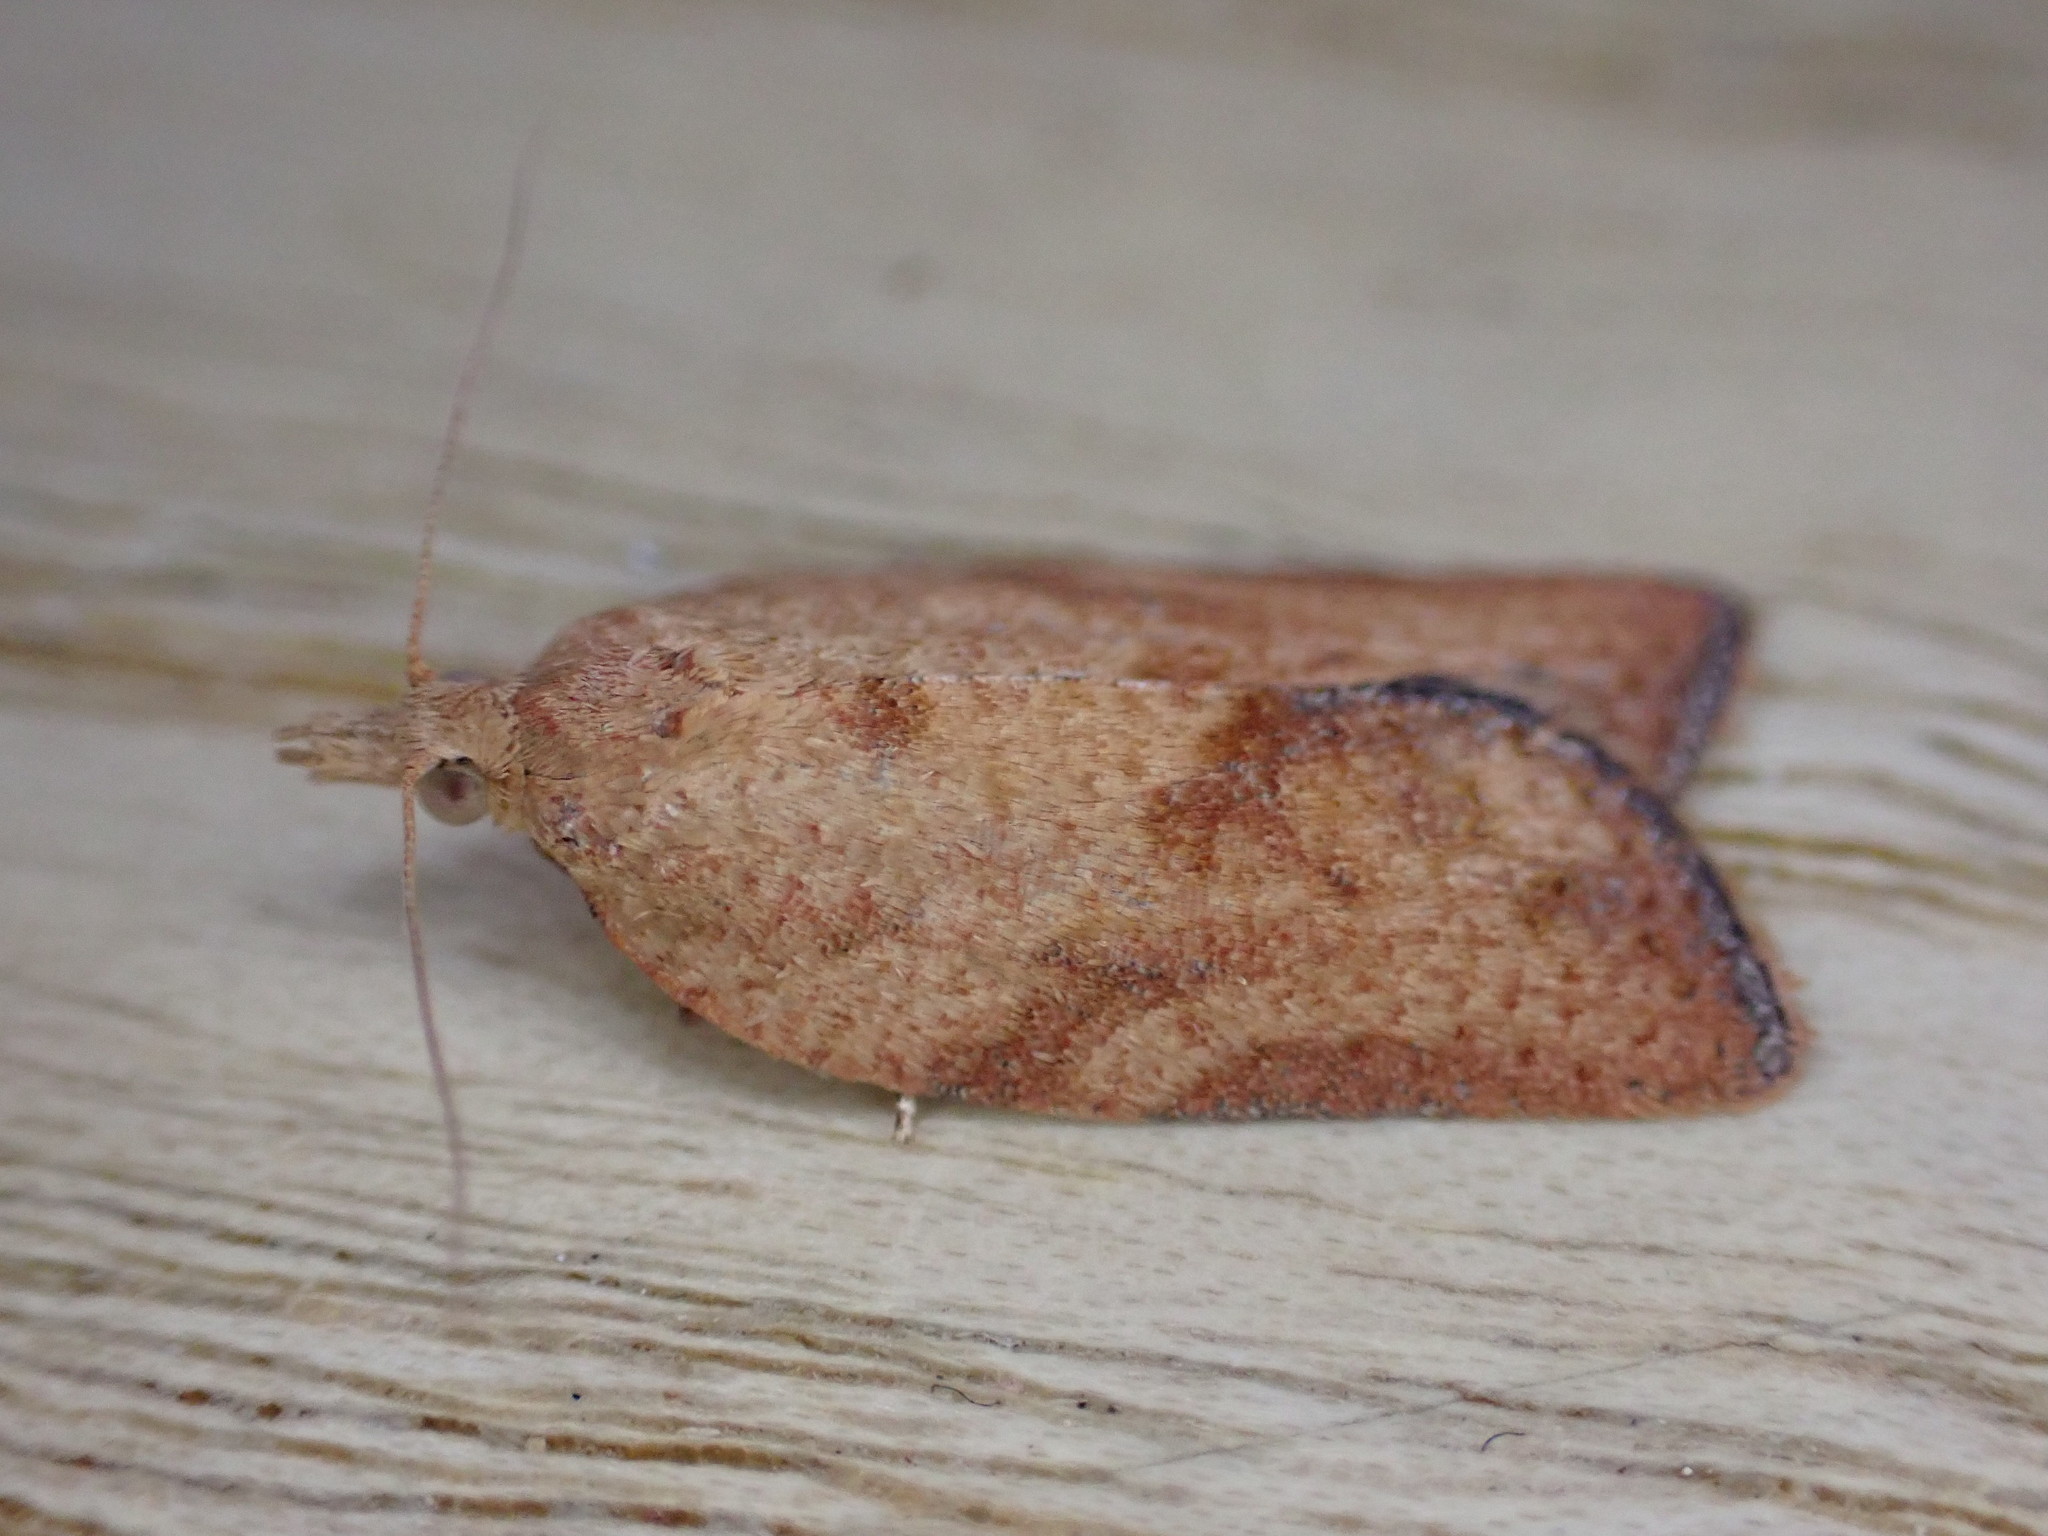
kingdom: Animalia
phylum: Arthropoda
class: Insecta
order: Lepidoptera
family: Tortricidae
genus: Epiphyas
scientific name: Epiphyas postvittana
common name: Light brown apple moth
